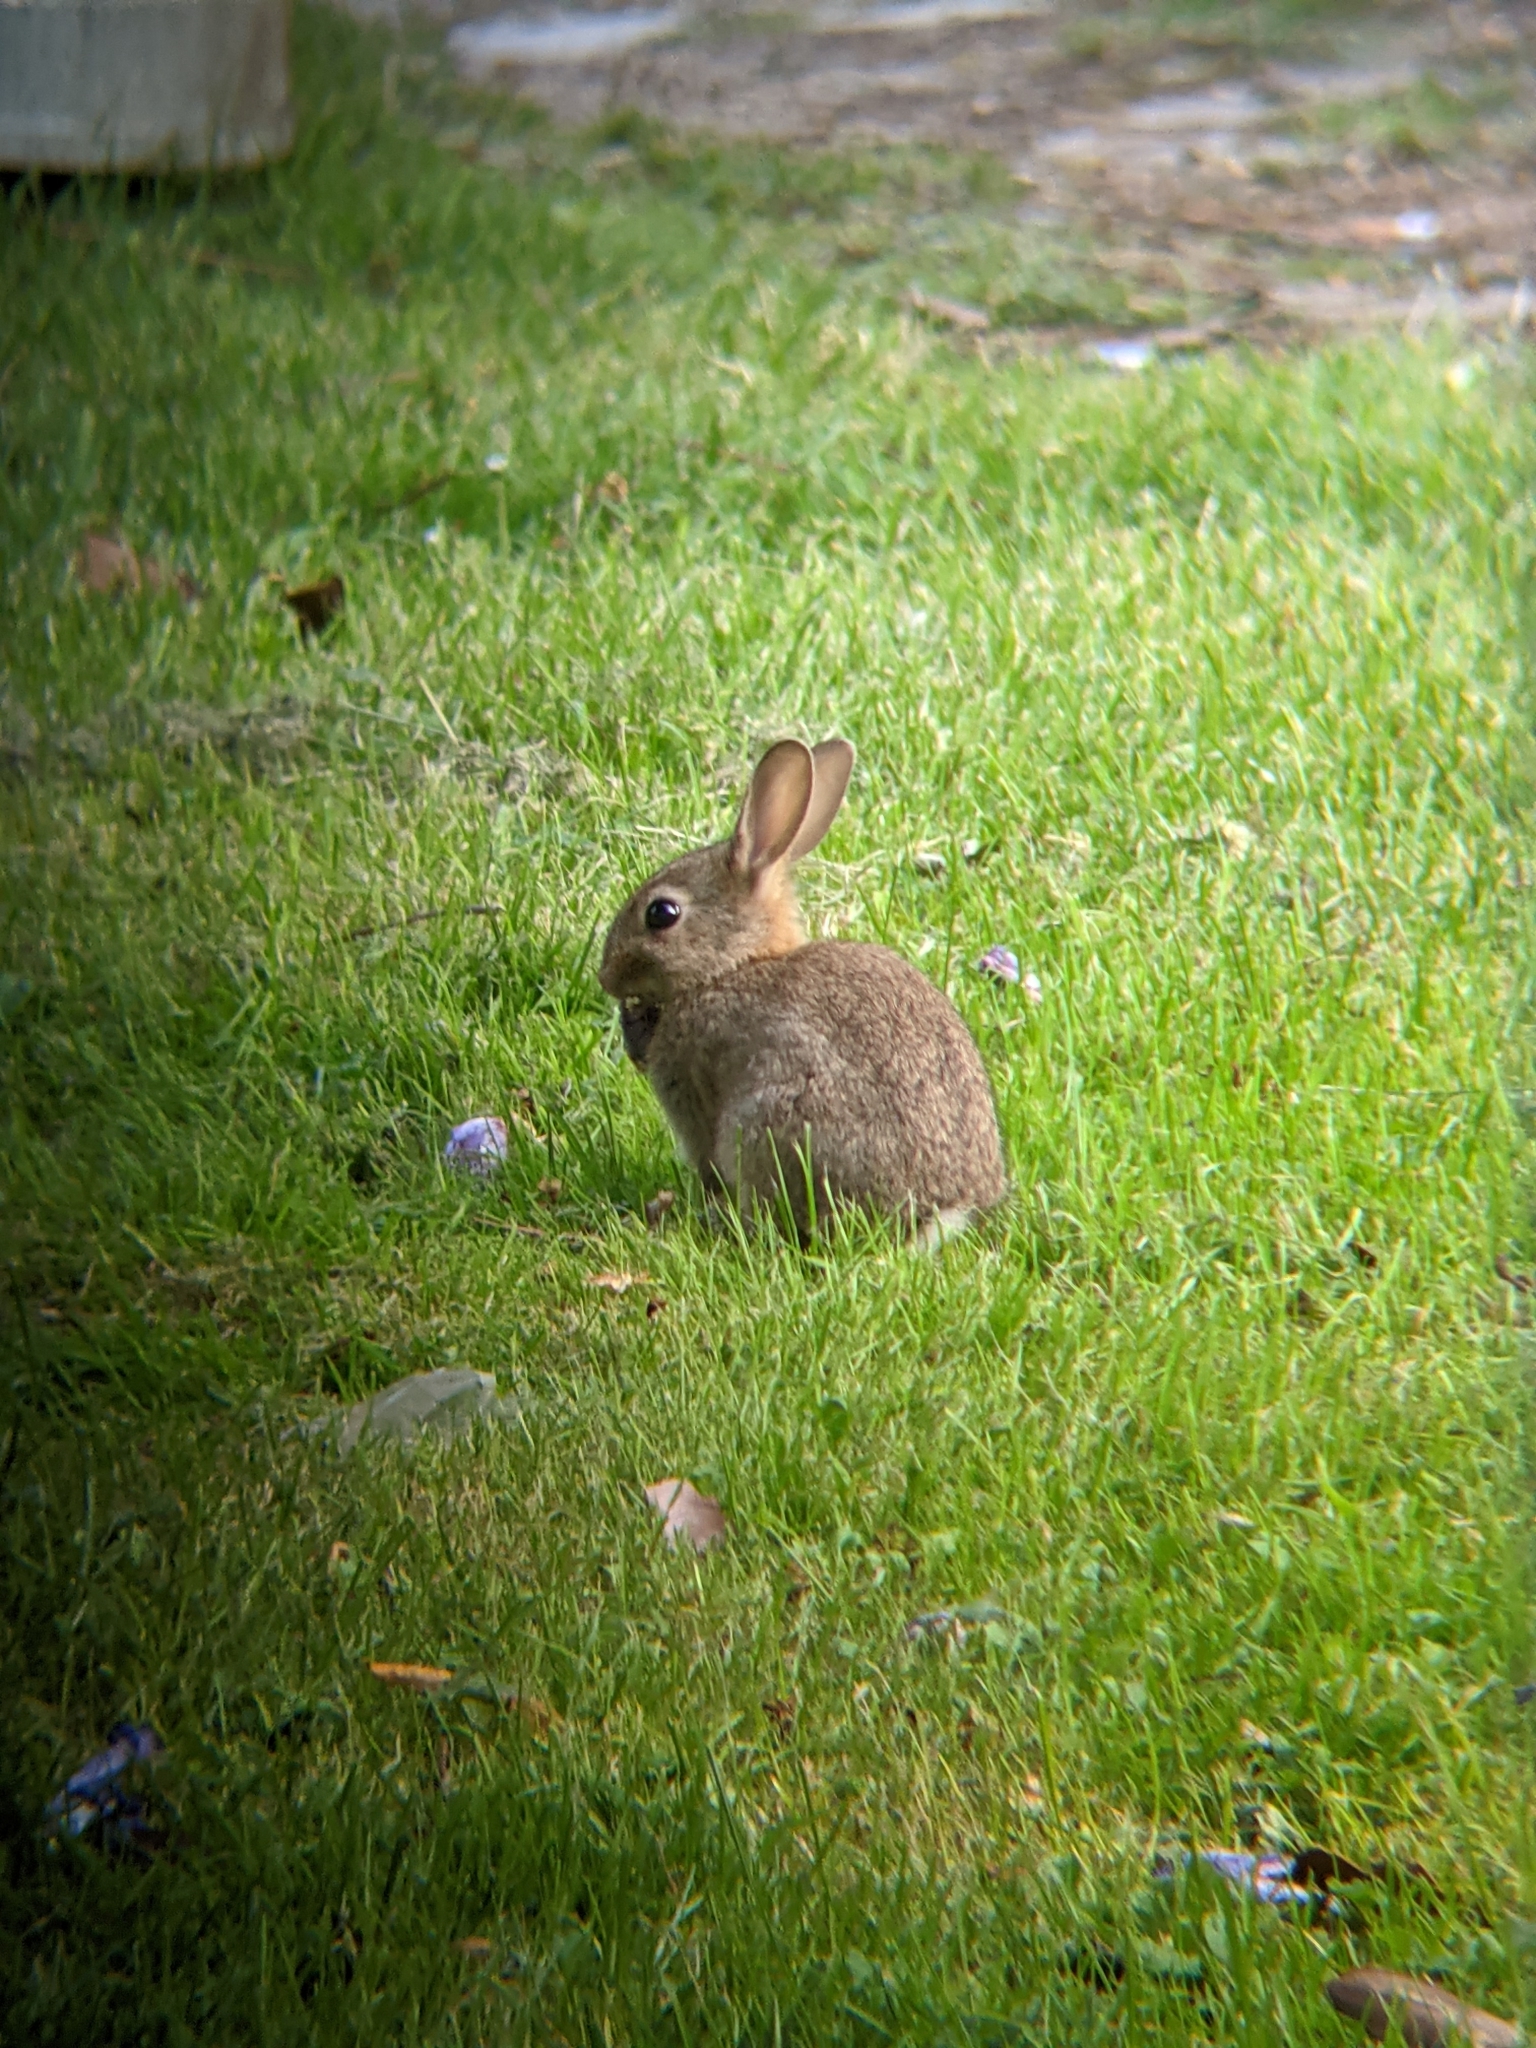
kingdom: Animalia
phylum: Chordata
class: Mammalia
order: Lagomorpha
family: Leporidae
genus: Oryctolagus
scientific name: Oryctolagus cuniculus
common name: European rabbit
